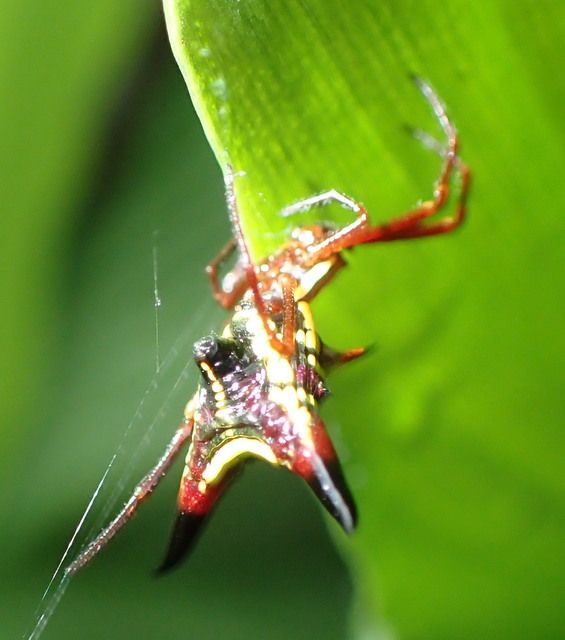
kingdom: Animalia
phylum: Arthropoda
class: Arachnida
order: Araneae
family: Araneidae
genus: Micrathena
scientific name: Micrathena sagittata
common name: Orb weavers
